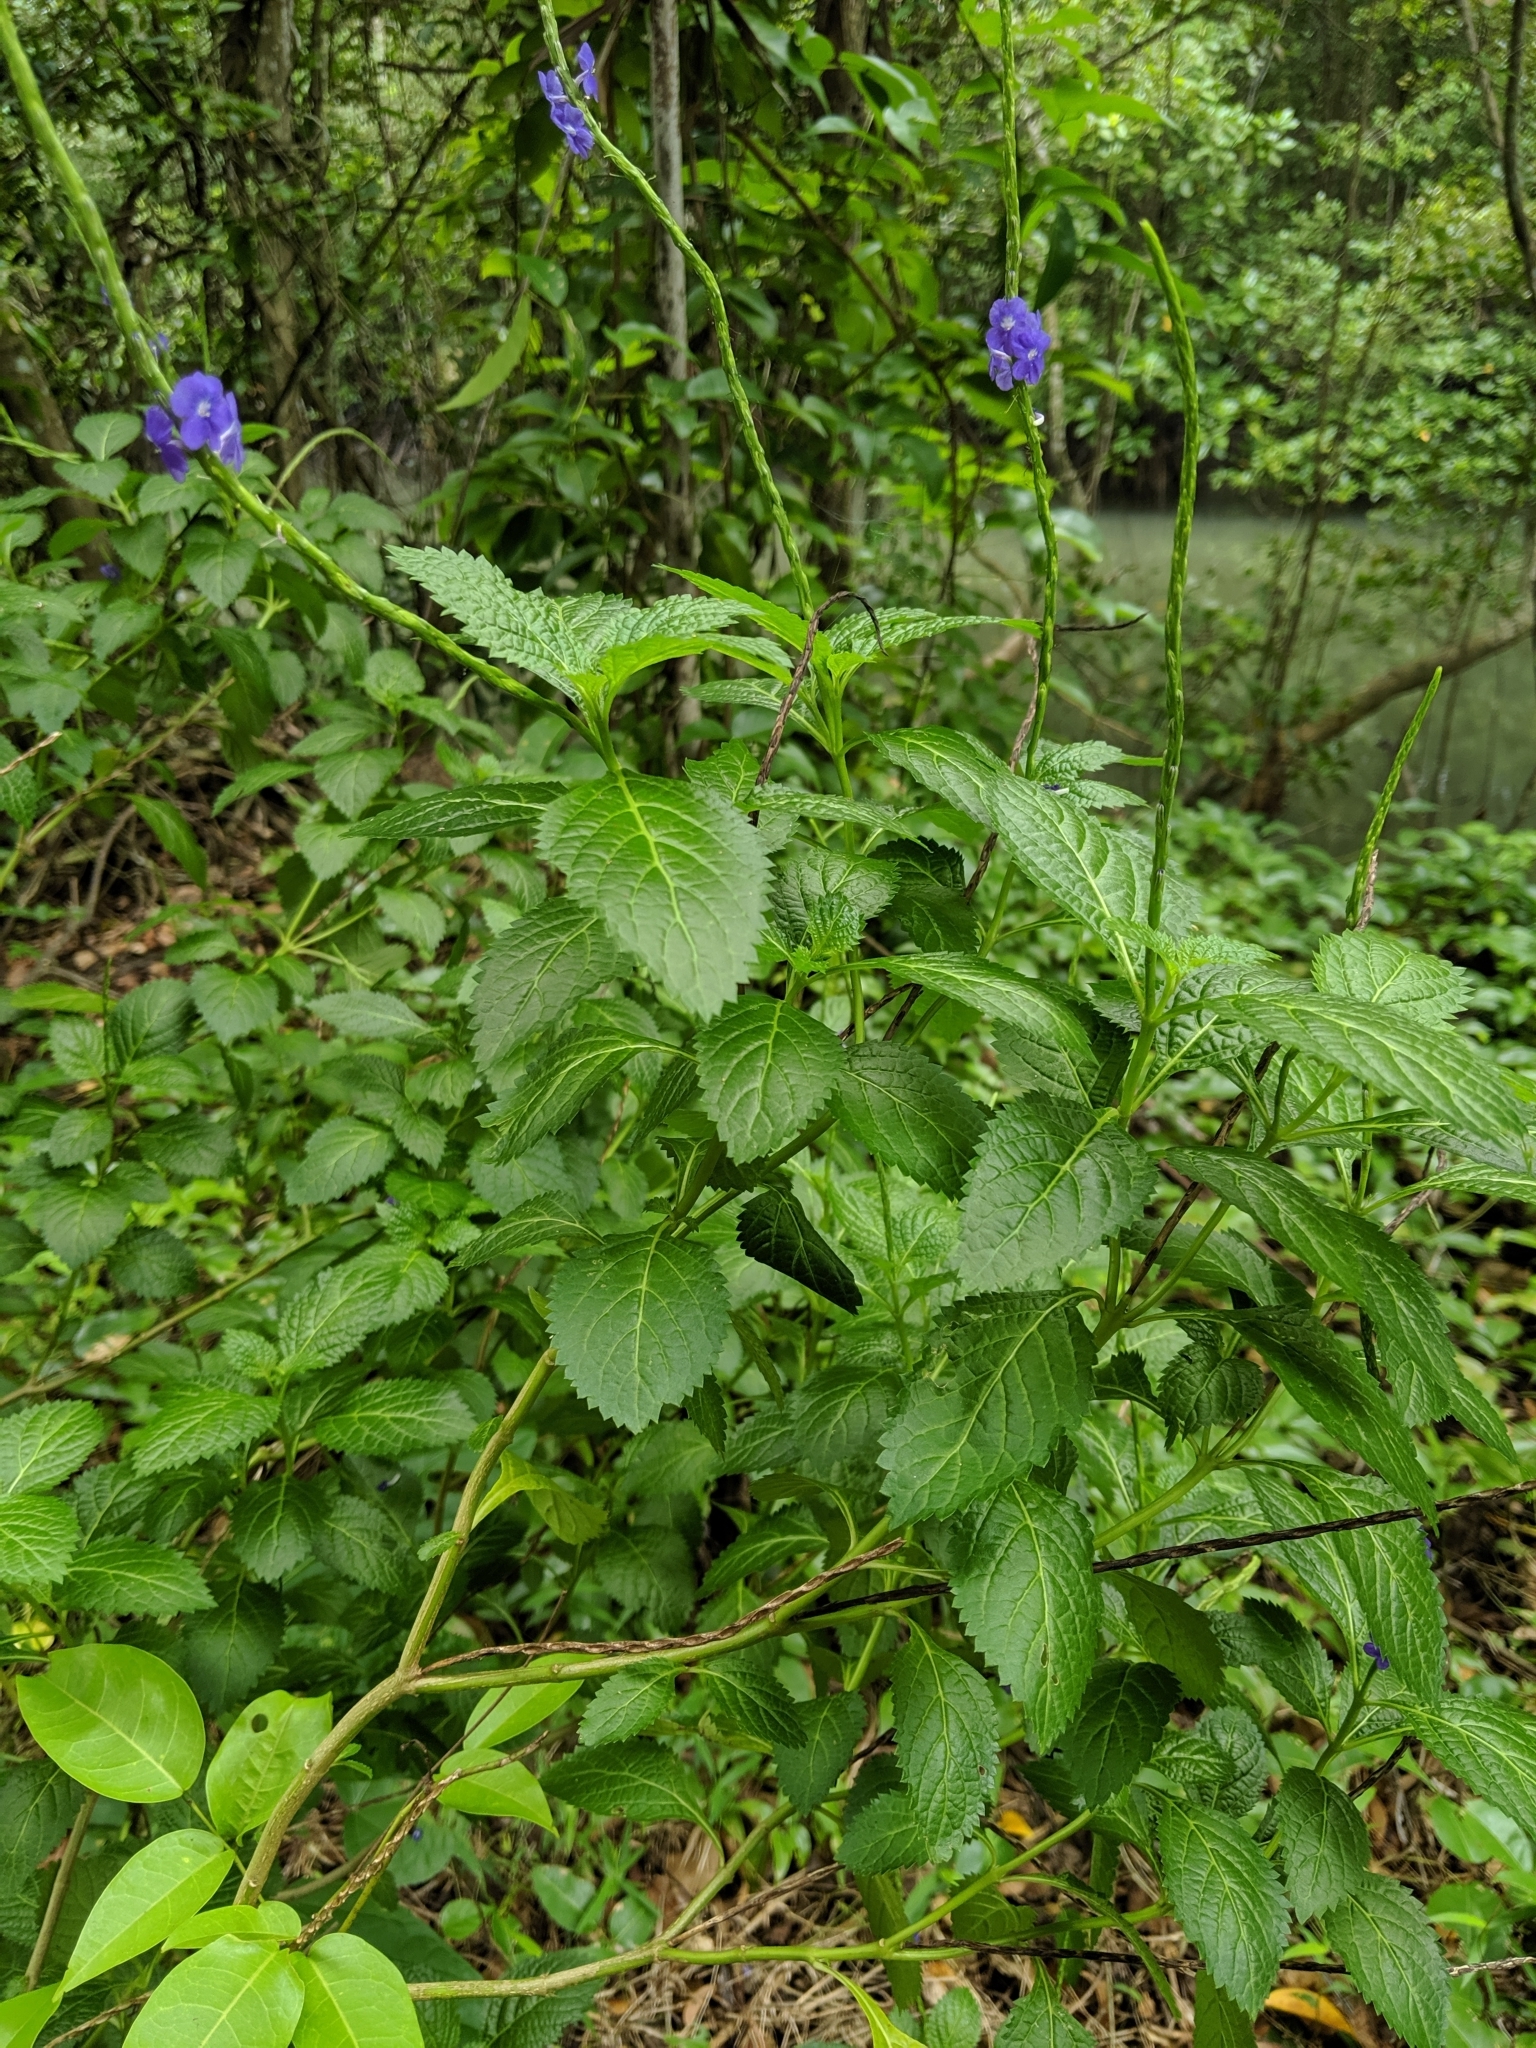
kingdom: Plantae
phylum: Tracheophyta
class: Magnoliopsida
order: Lamiales
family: Verbenaceae
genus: Stachytarpheta
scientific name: Stachytarpheta jamaicensis
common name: Light-blue snakeweed
